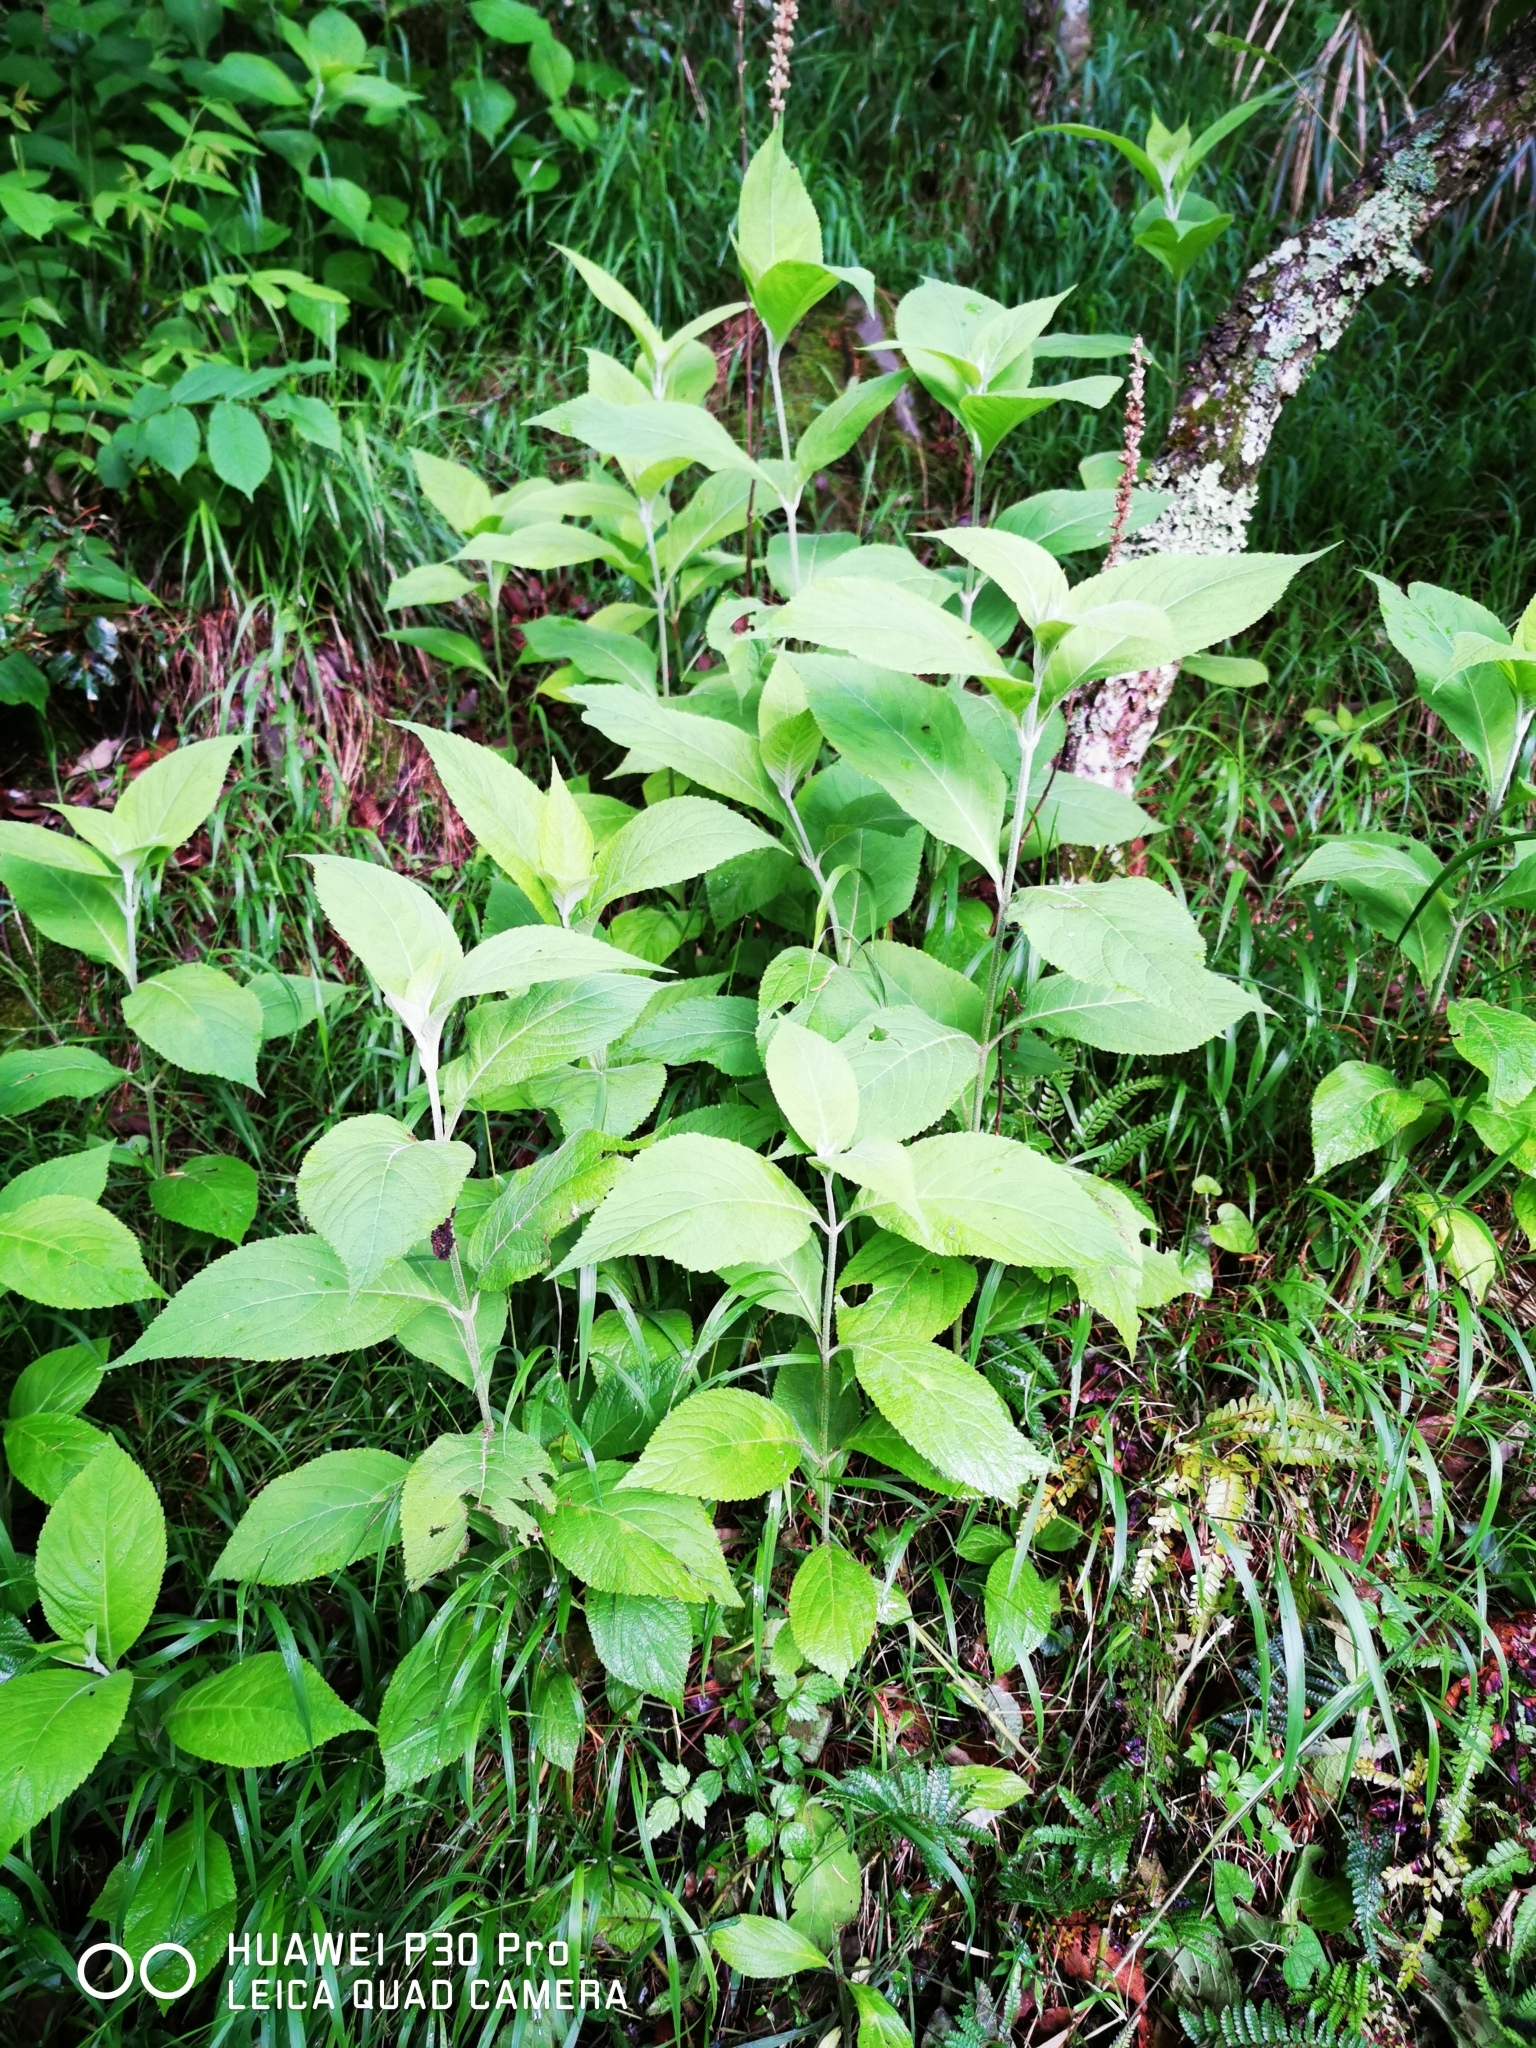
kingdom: Plantae
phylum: Tracheophyta
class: Magnoliopsida
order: Lamiales
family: Lamiaceae
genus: Comanthosphace
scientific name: Comanthosphace formosana
